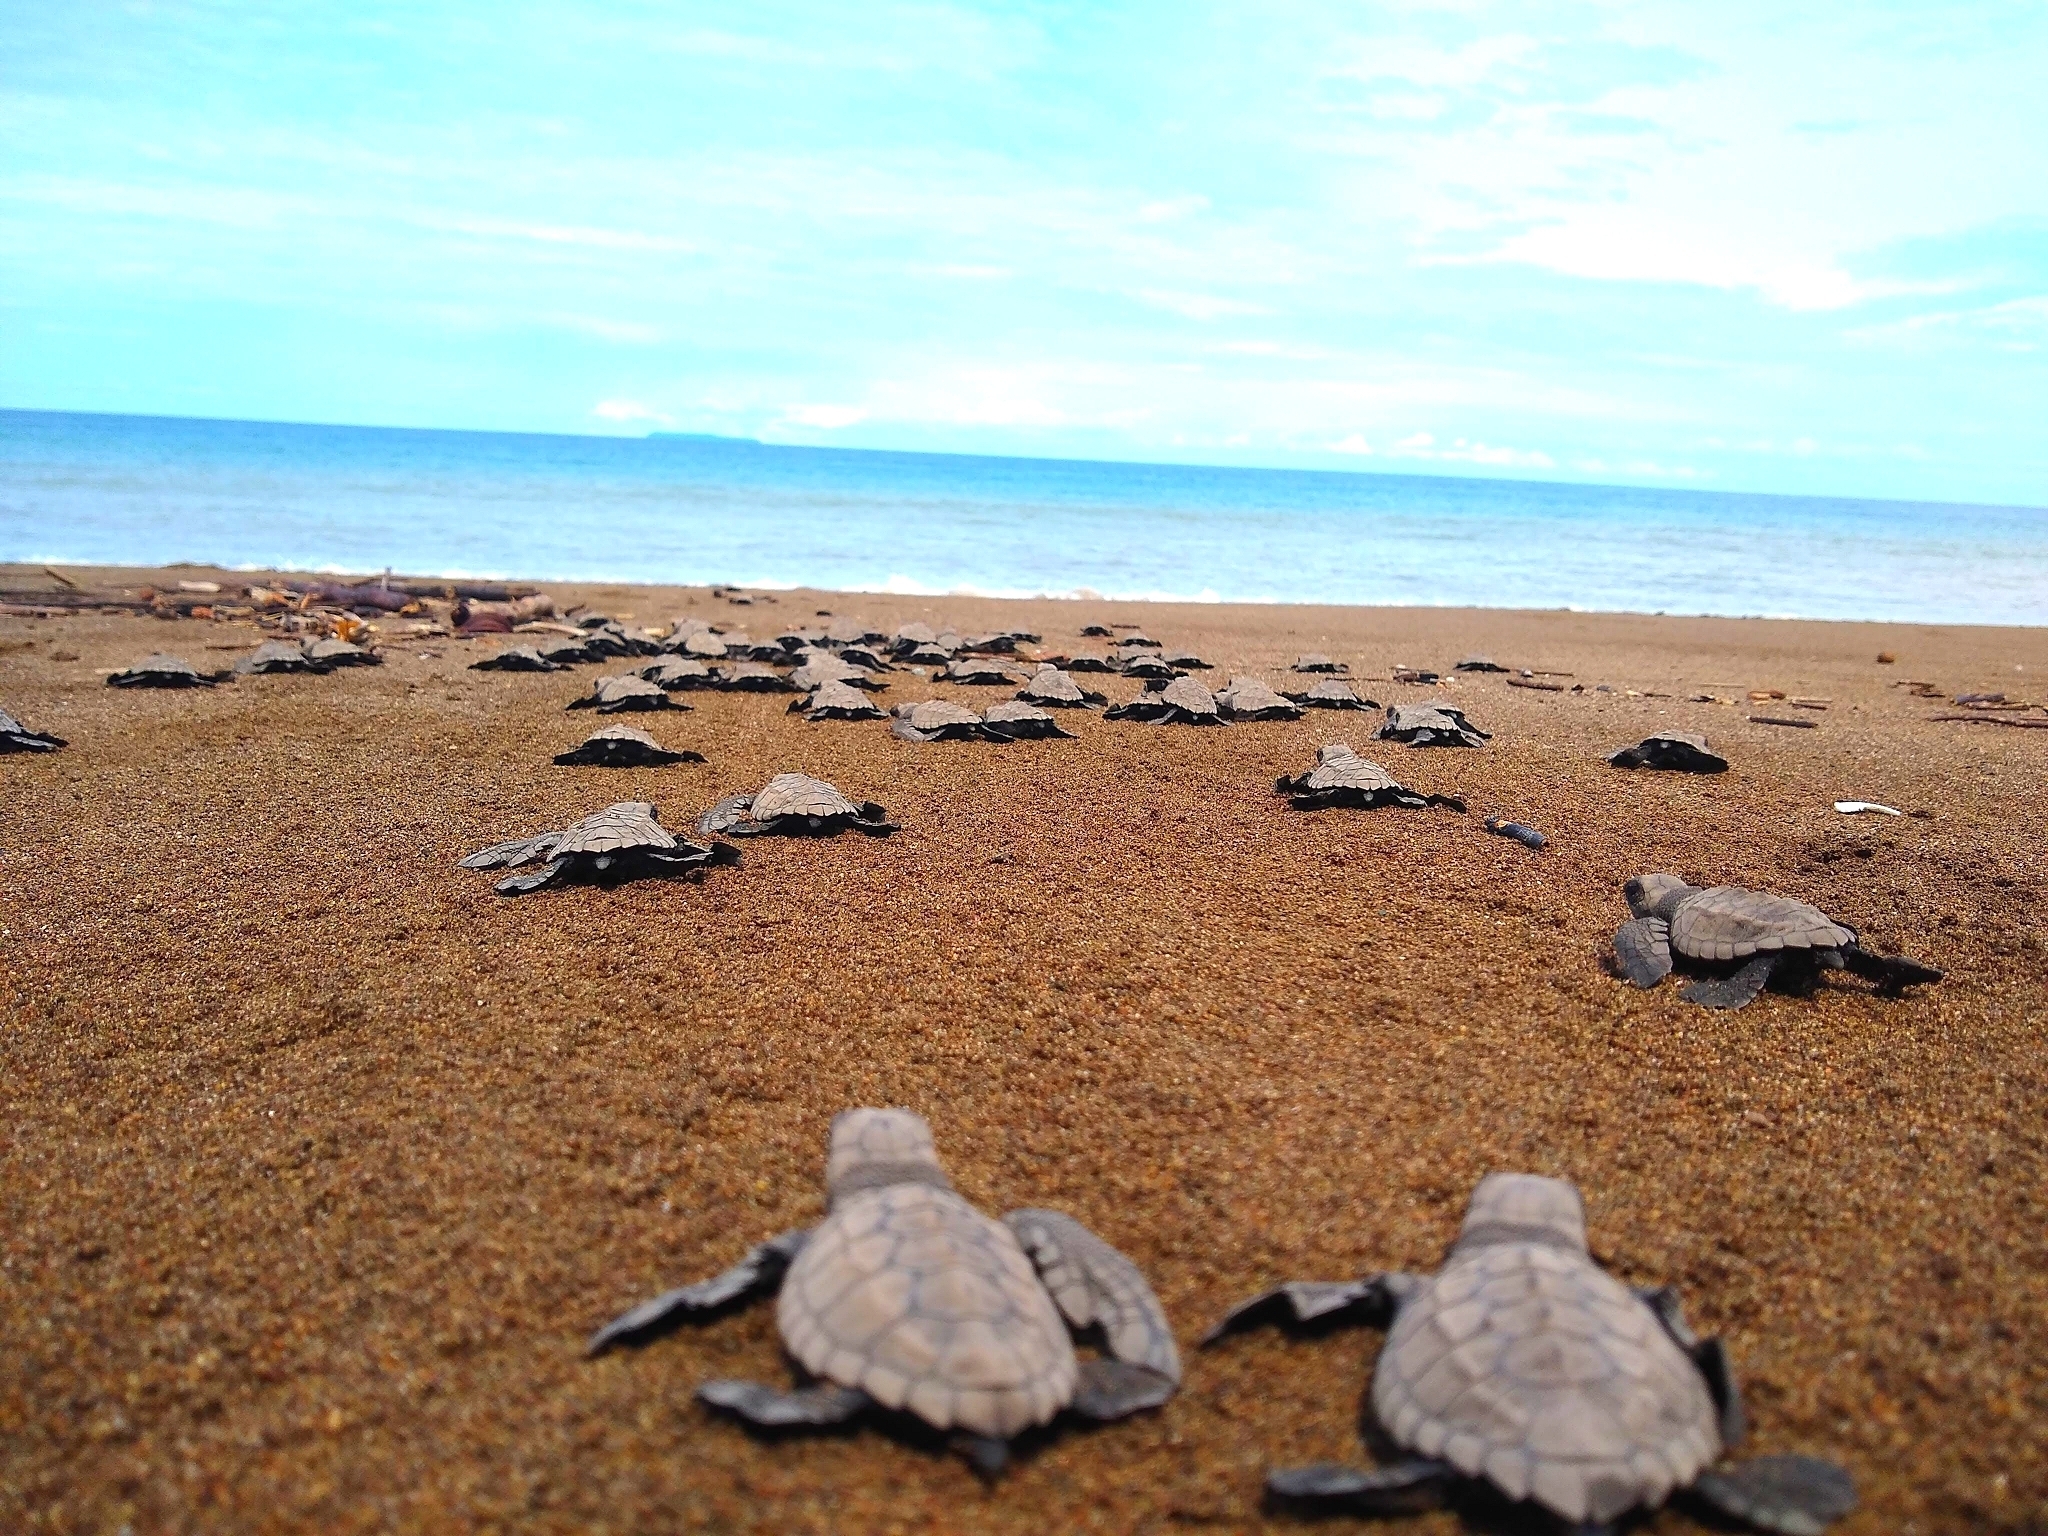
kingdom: Animalia
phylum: Chordata
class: Testudines
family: Cheloniidae
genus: Lepidochelys
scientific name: Lepidochelys olivacea
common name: Olive ridley
